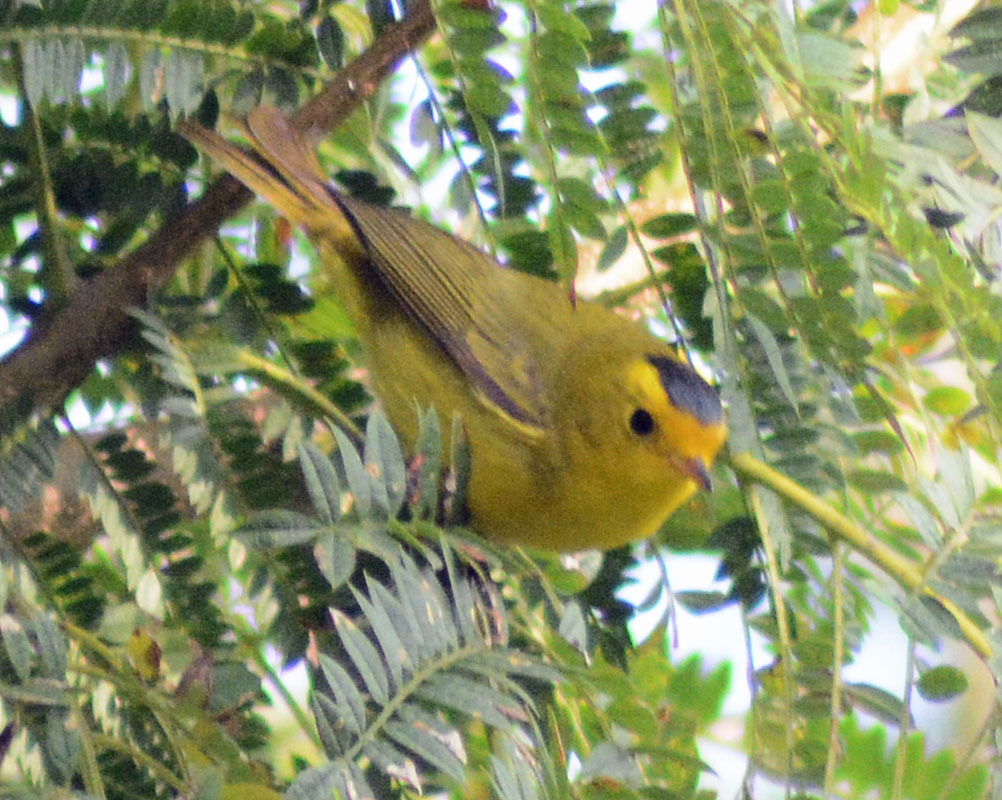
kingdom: Animalia
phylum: Chordata
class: Aves
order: Passeriformes
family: Parulidae
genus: Cardellina
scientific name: Cardellina pusilla
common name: Wilson's warbler
